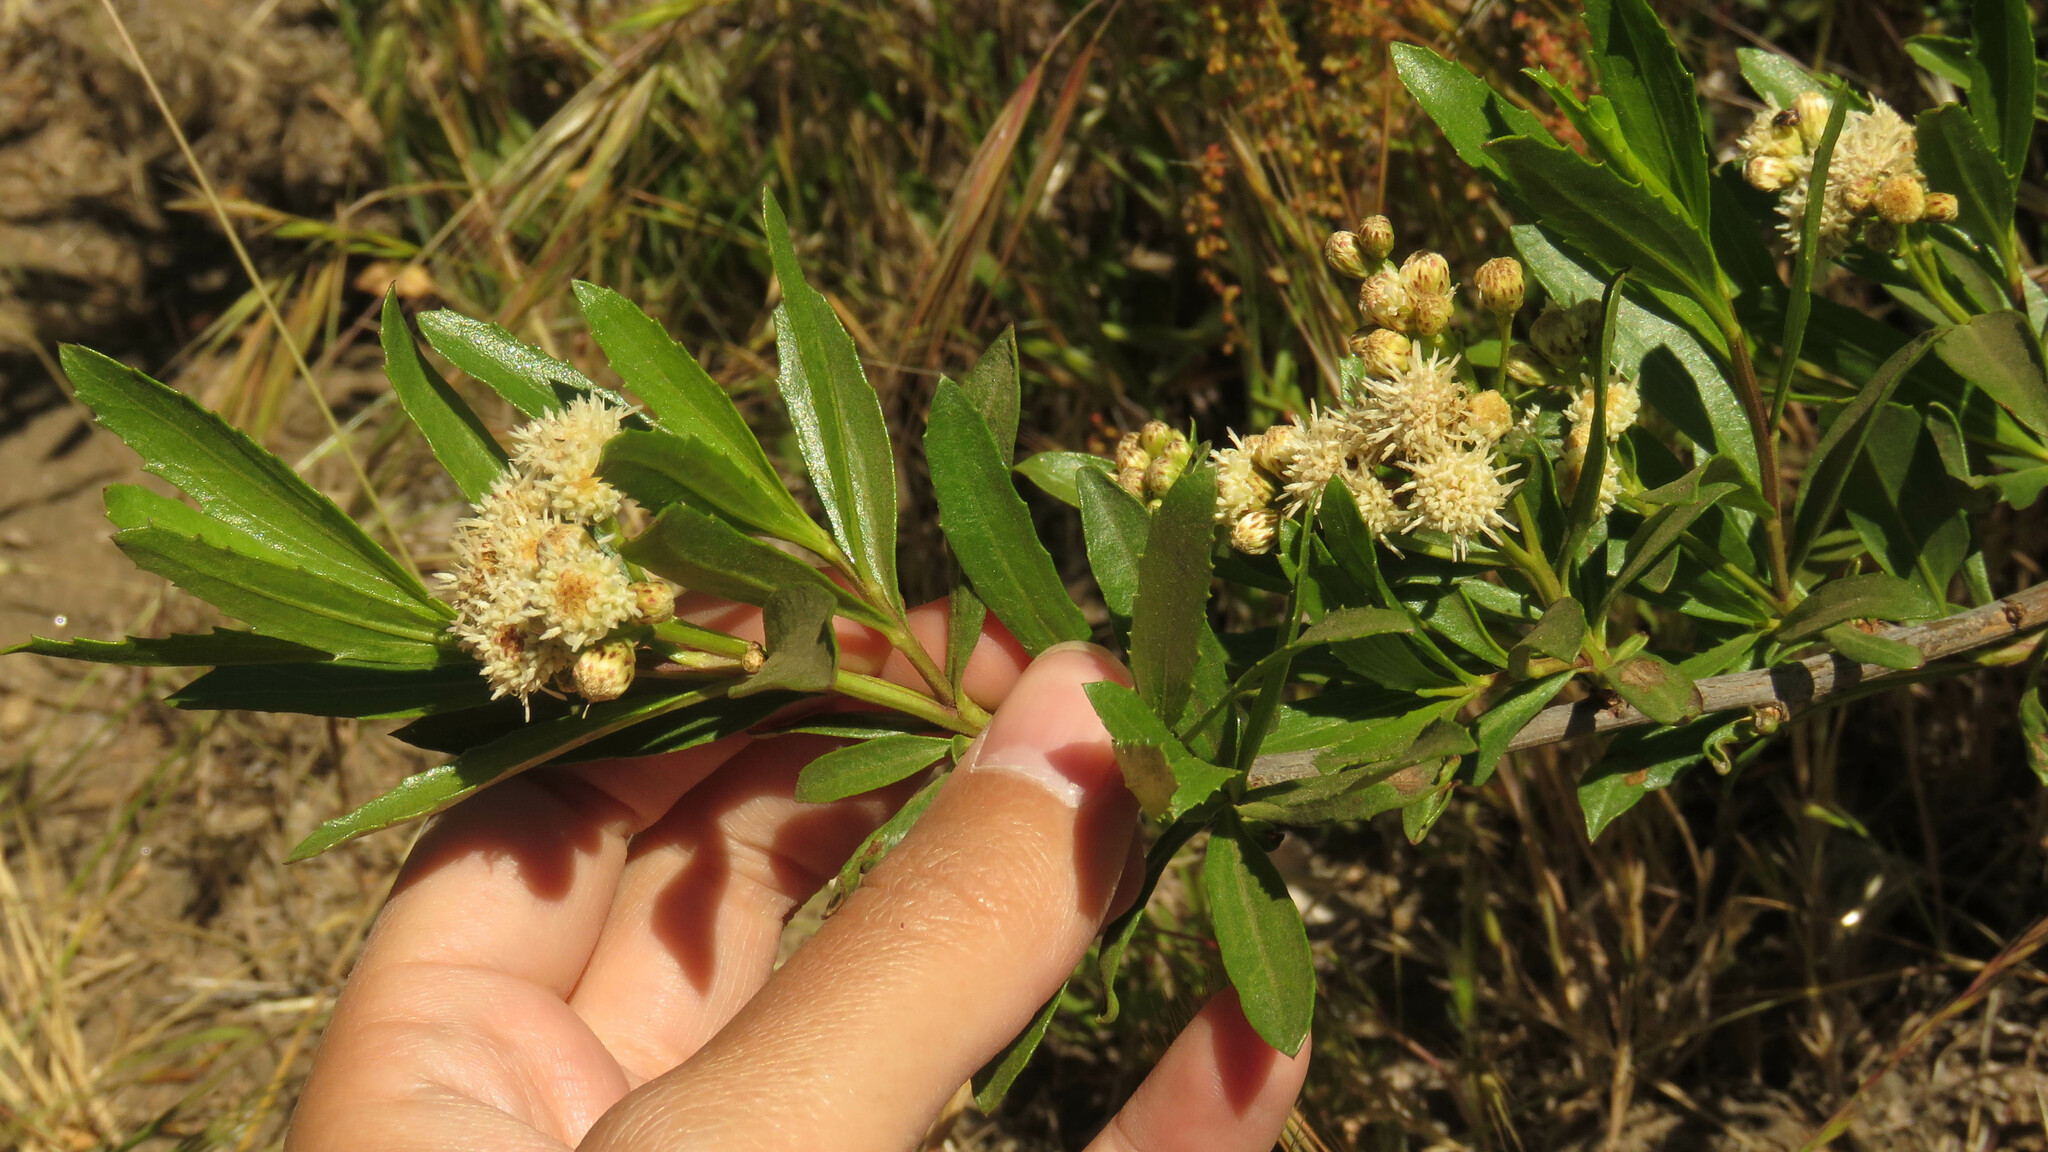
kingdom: Plantae
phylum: Tracheophyta
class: Magnoliopsida
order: Asterales
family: Asteraceae
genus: Baccharis
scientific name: Baccharis salicifolia
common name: Sticky baccharis
